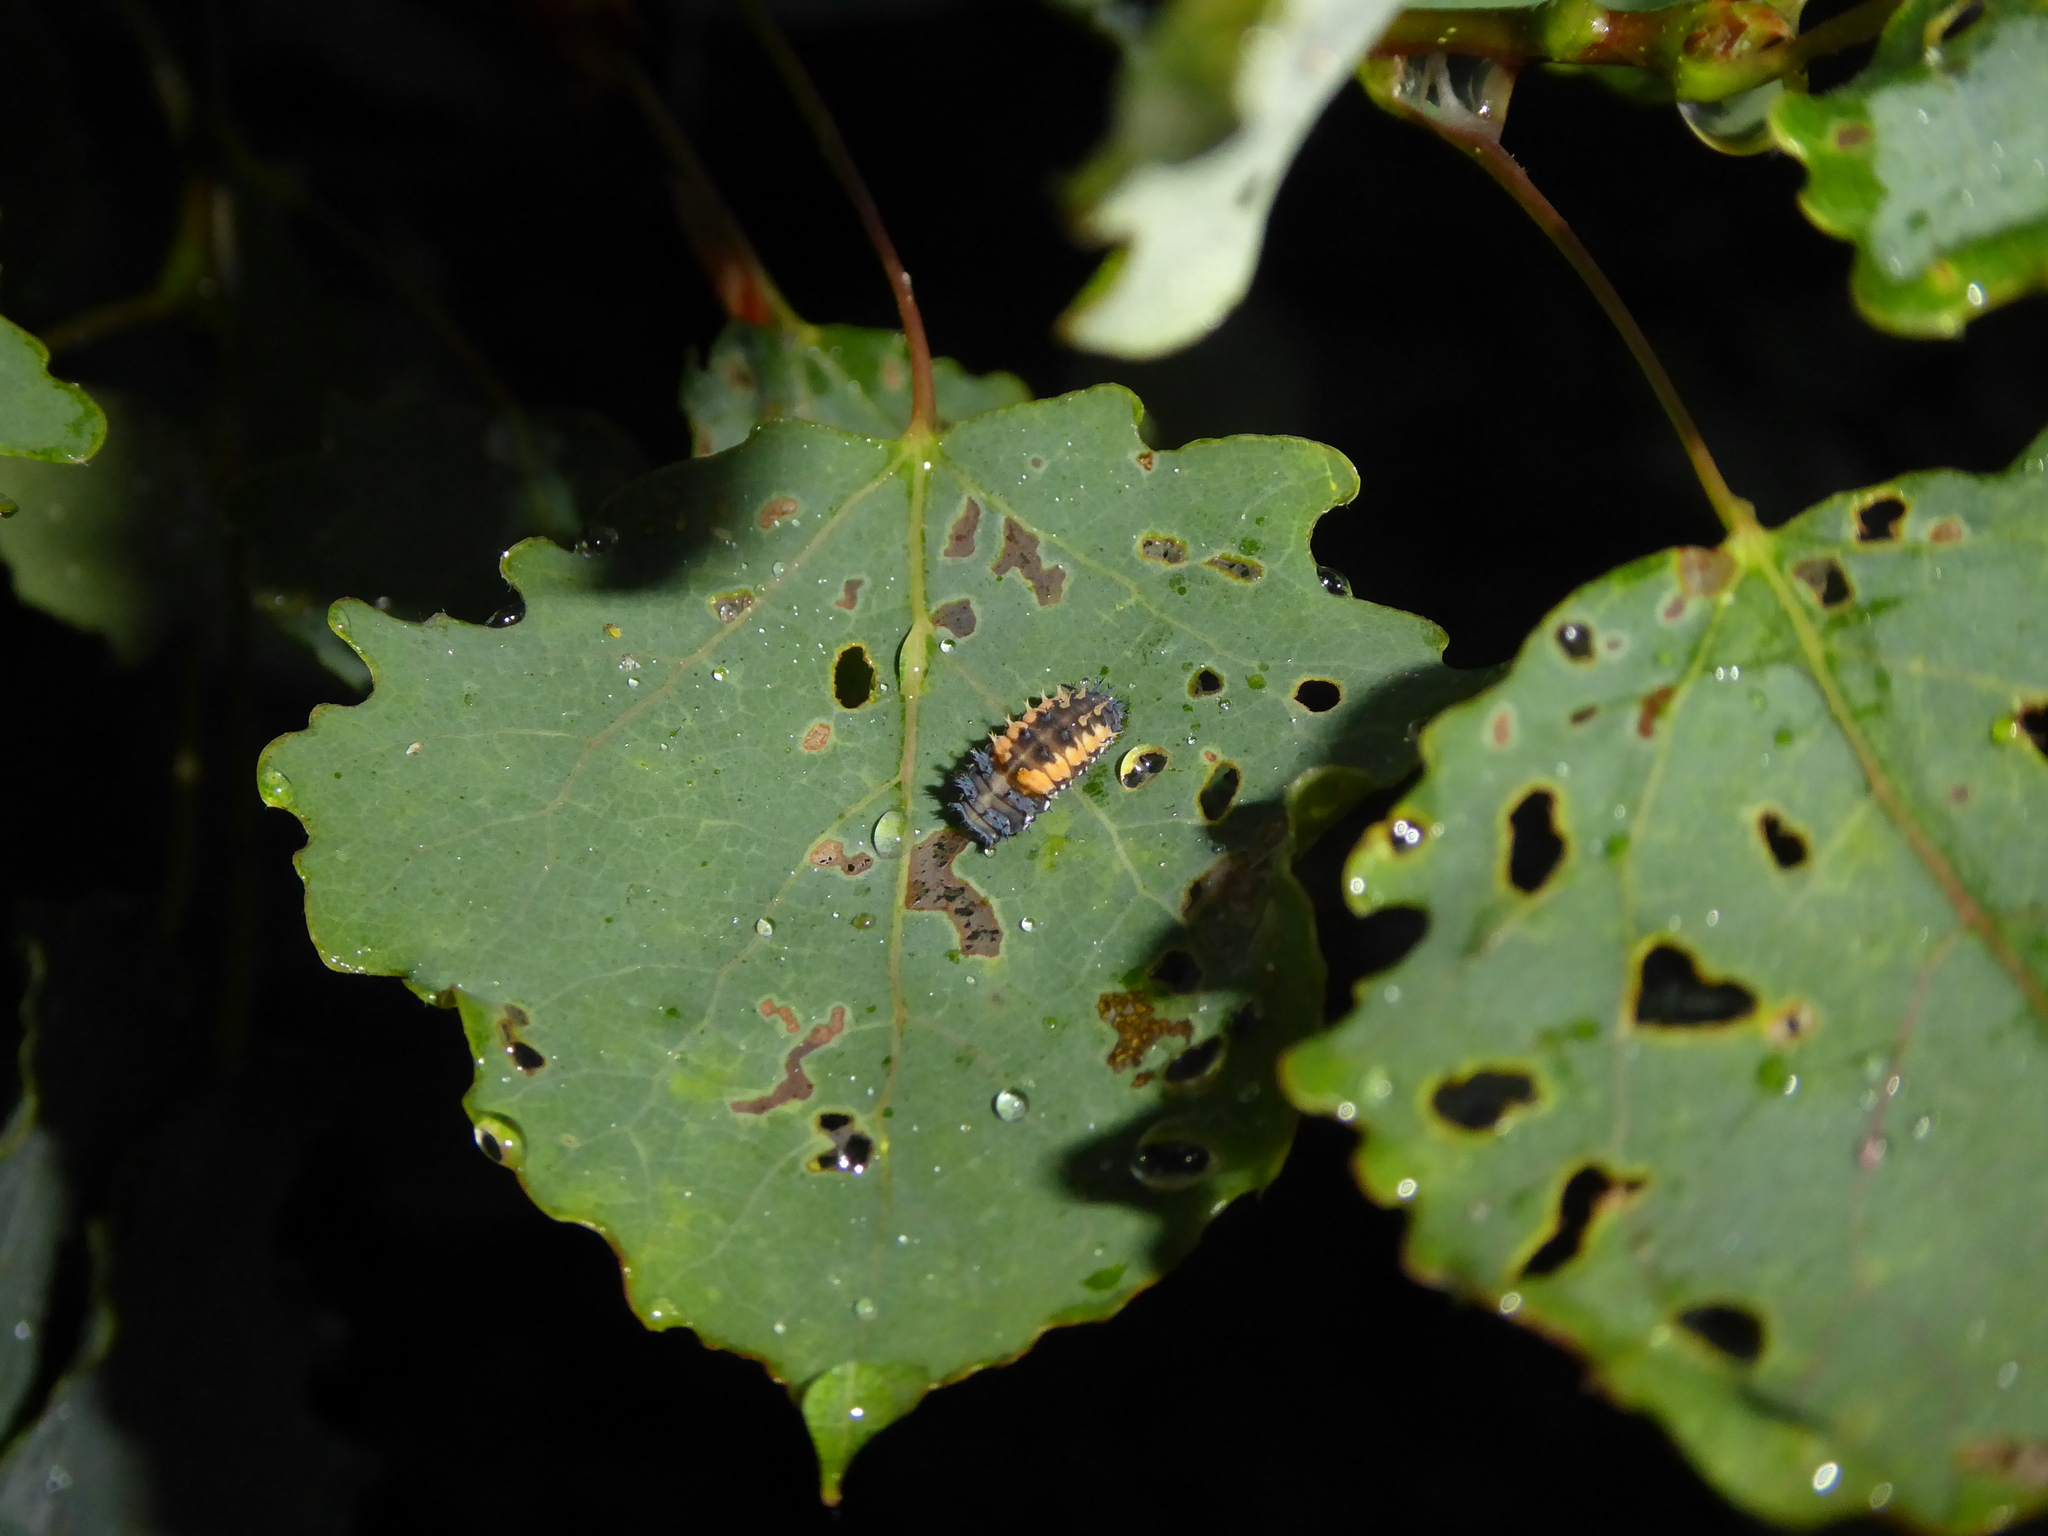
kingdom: Animalia
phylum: Arthropoda
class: Insecta
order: Coleoptera
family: Coccinellidae
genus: Harmonia
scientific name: Harmonia axyridis
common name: Harlequin ladybird
